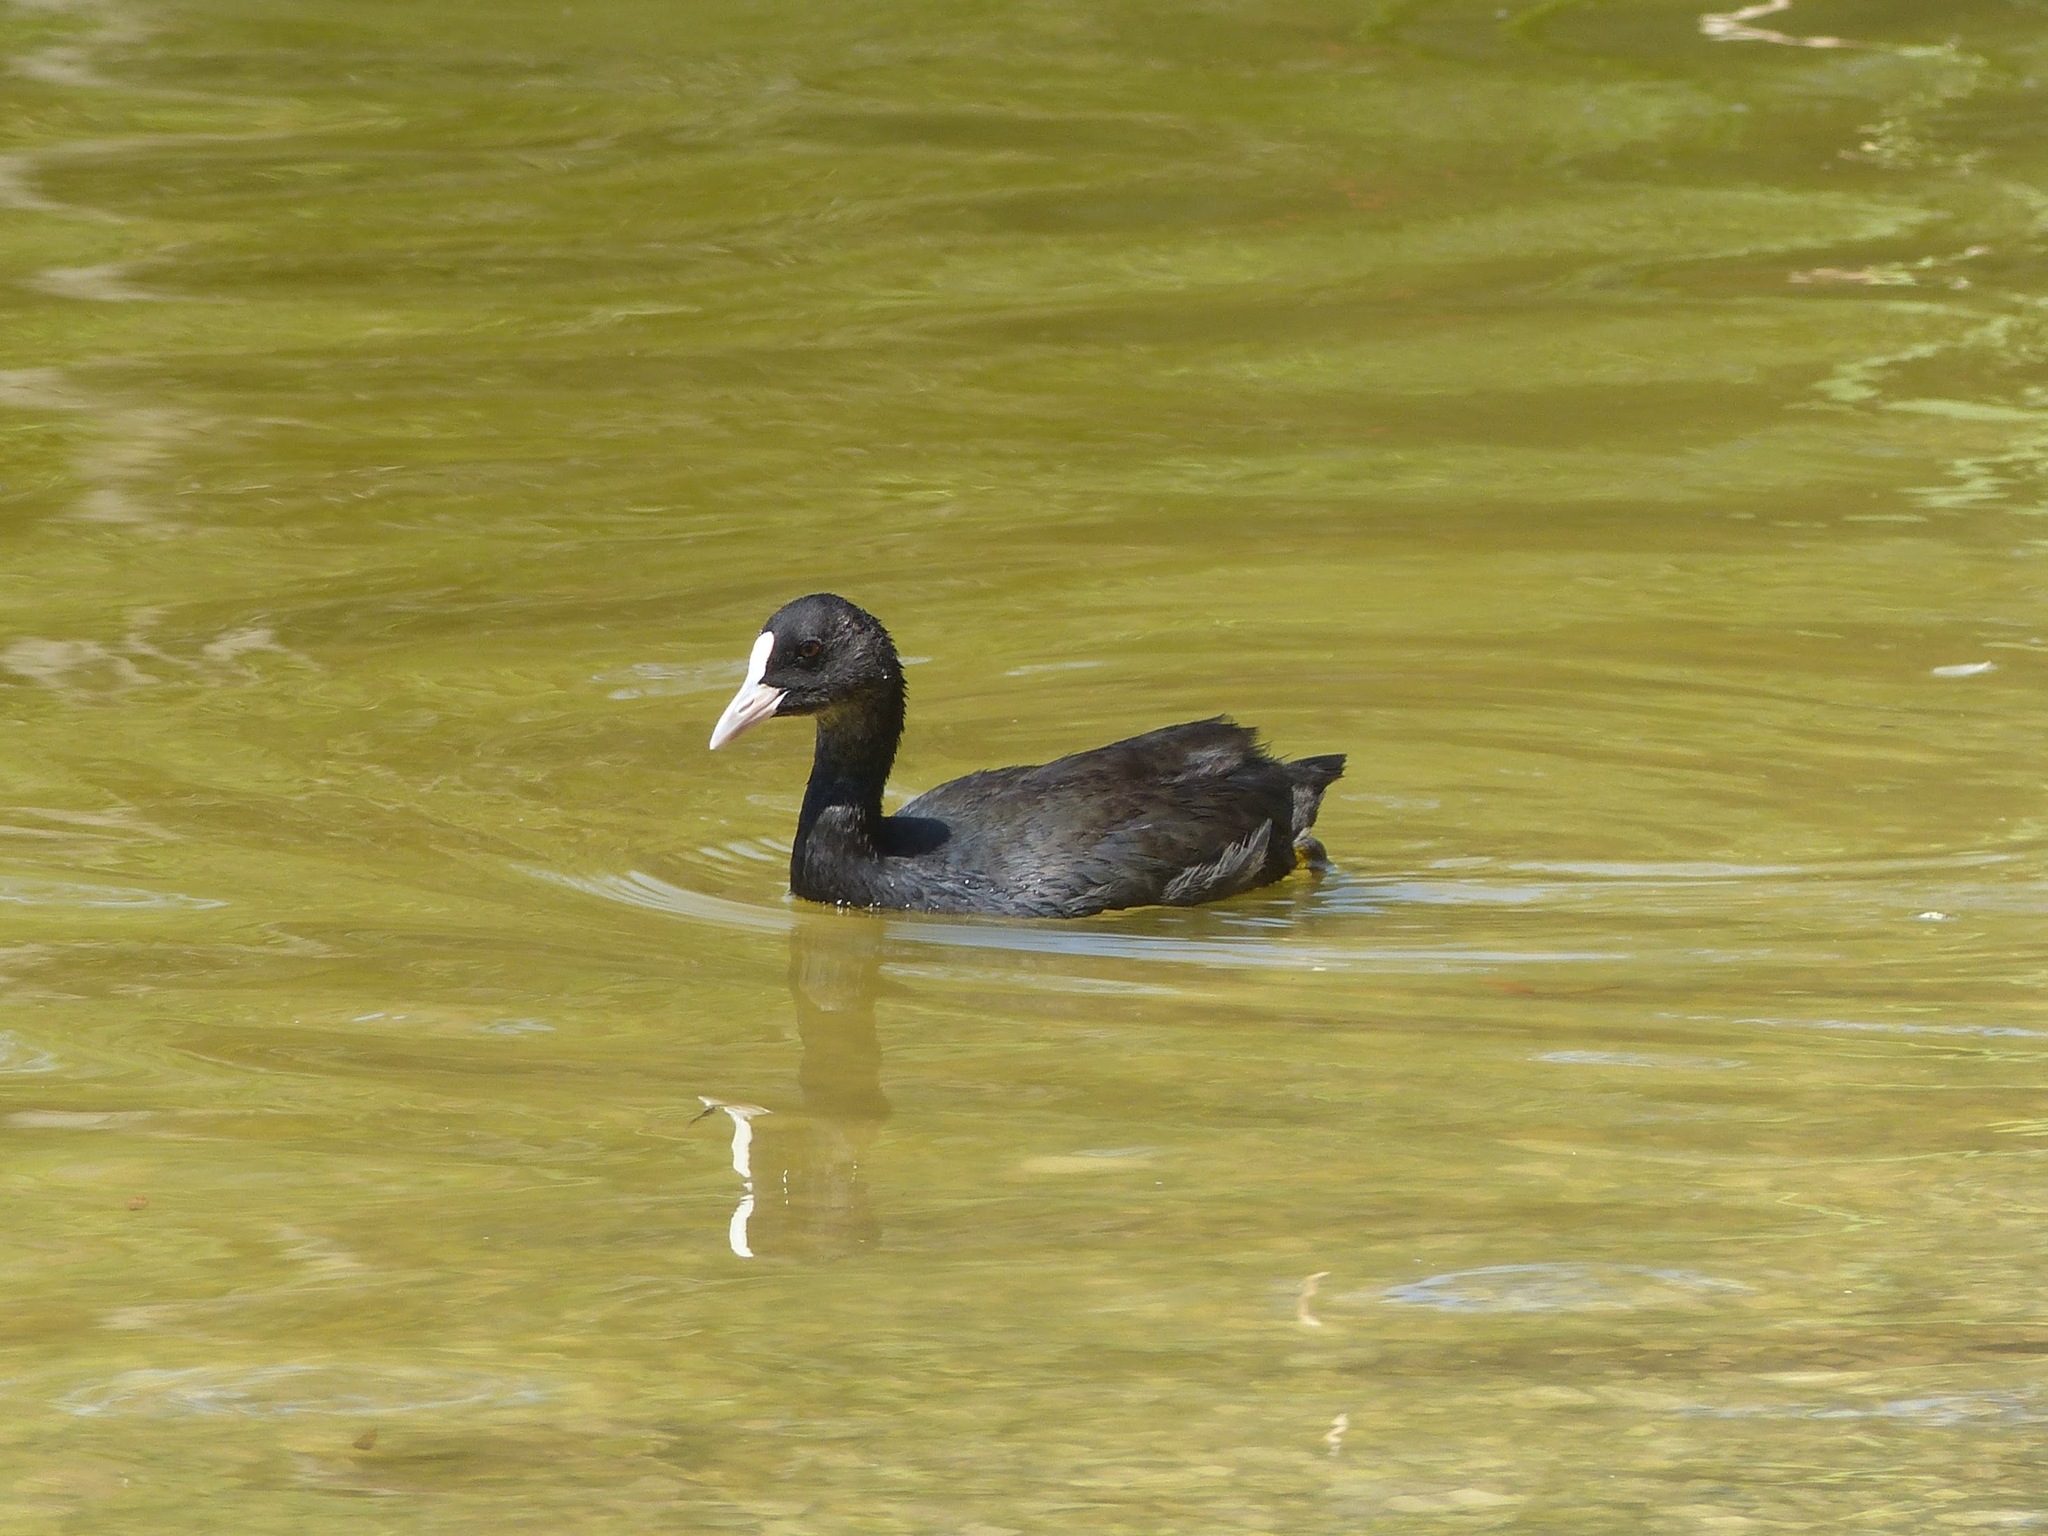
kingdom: Animalia
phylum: Chordata
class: Aves
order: Gruiformes
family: Rallidae
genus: Fulica
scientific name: Fulica atra
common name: Eurasian coot
